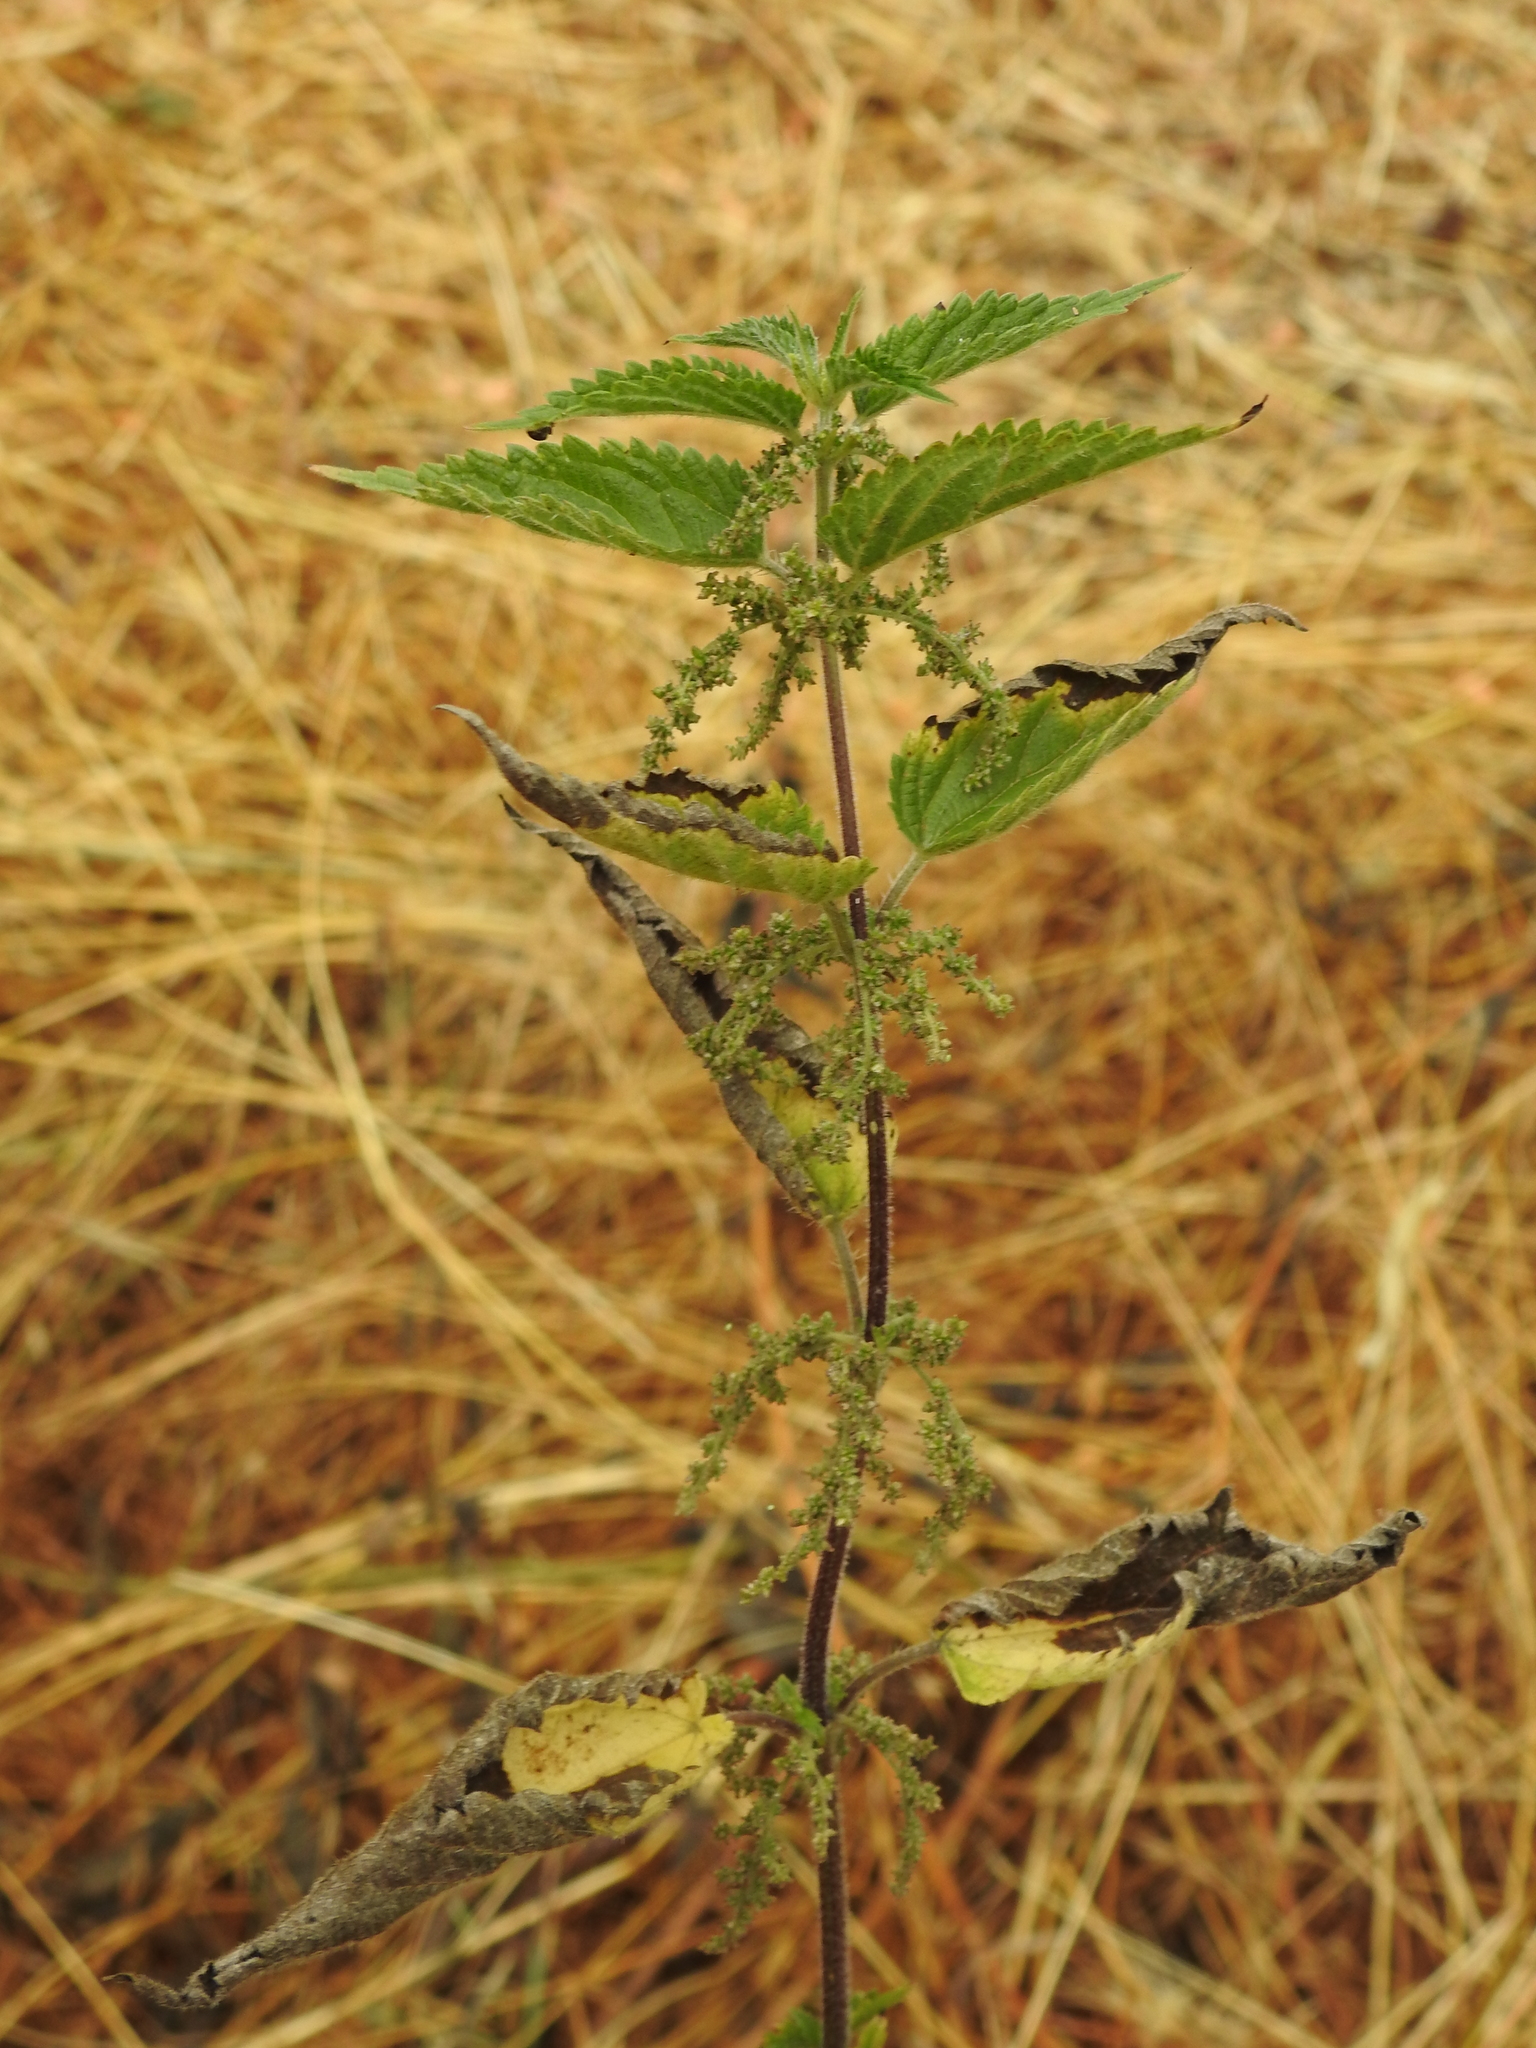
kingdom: Plantae
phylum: Tracheophyta
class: Magnoliopsida
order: Rosales
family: Urticaceae
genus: Urtica
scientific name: Urtica dioica
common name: Common nettle
